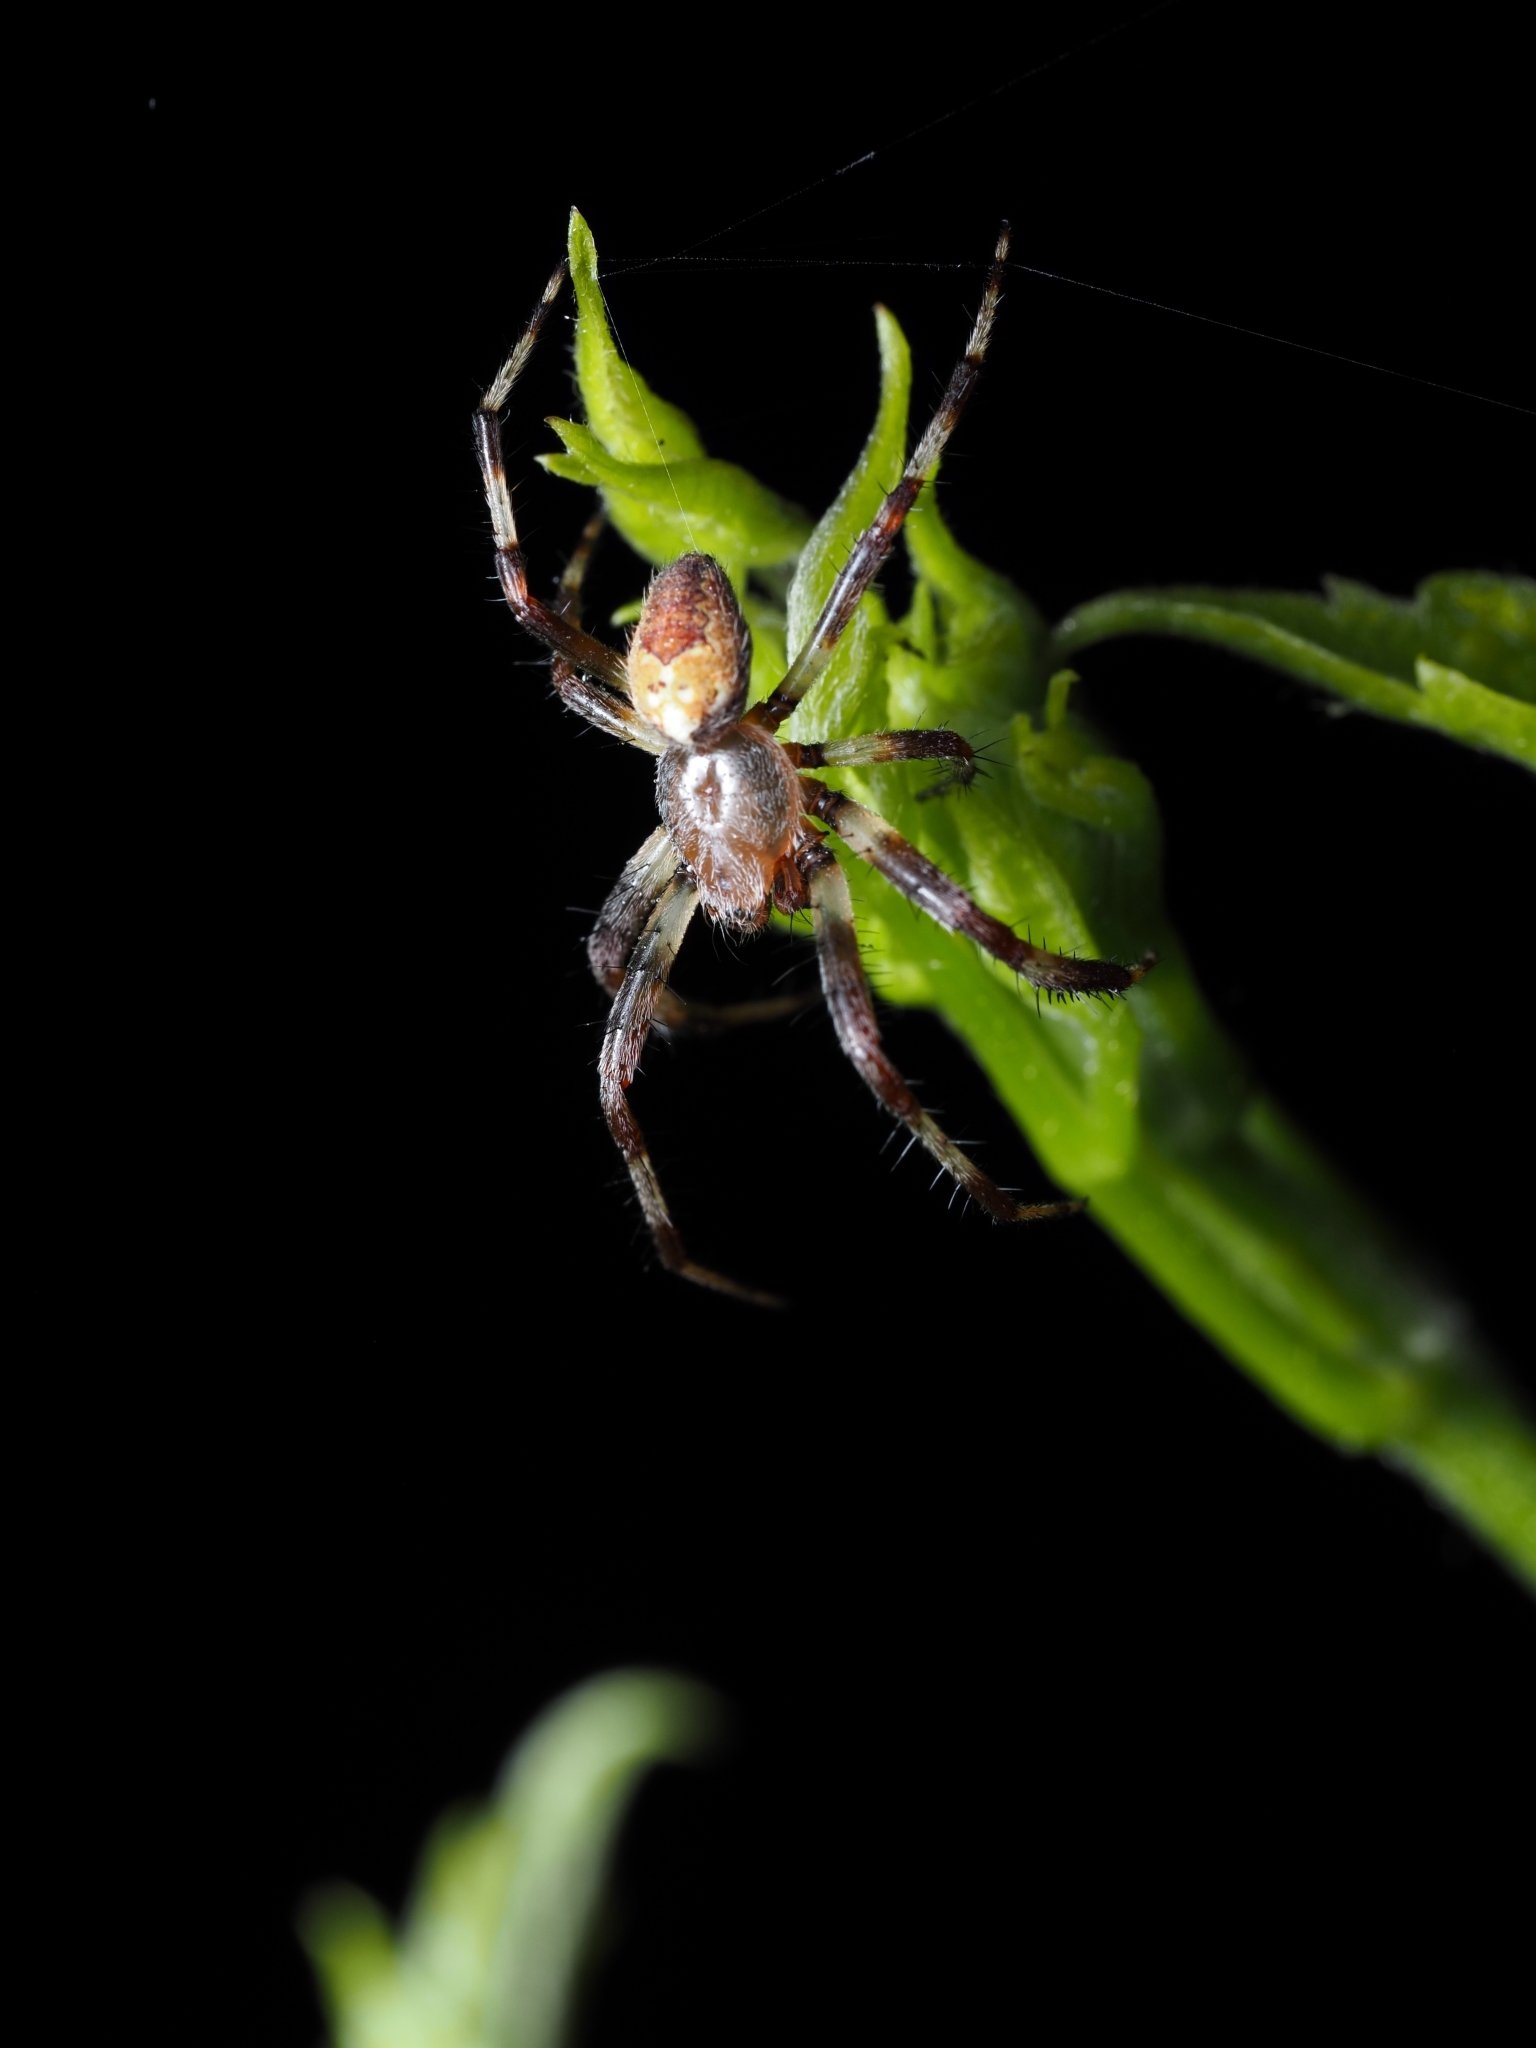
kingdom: Animalia
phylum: Arthropoda
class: Arachnida
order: Araneae
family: Araneidae
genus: Araneus
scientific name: Araneus marmoreus
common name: Marbled orbweaver
